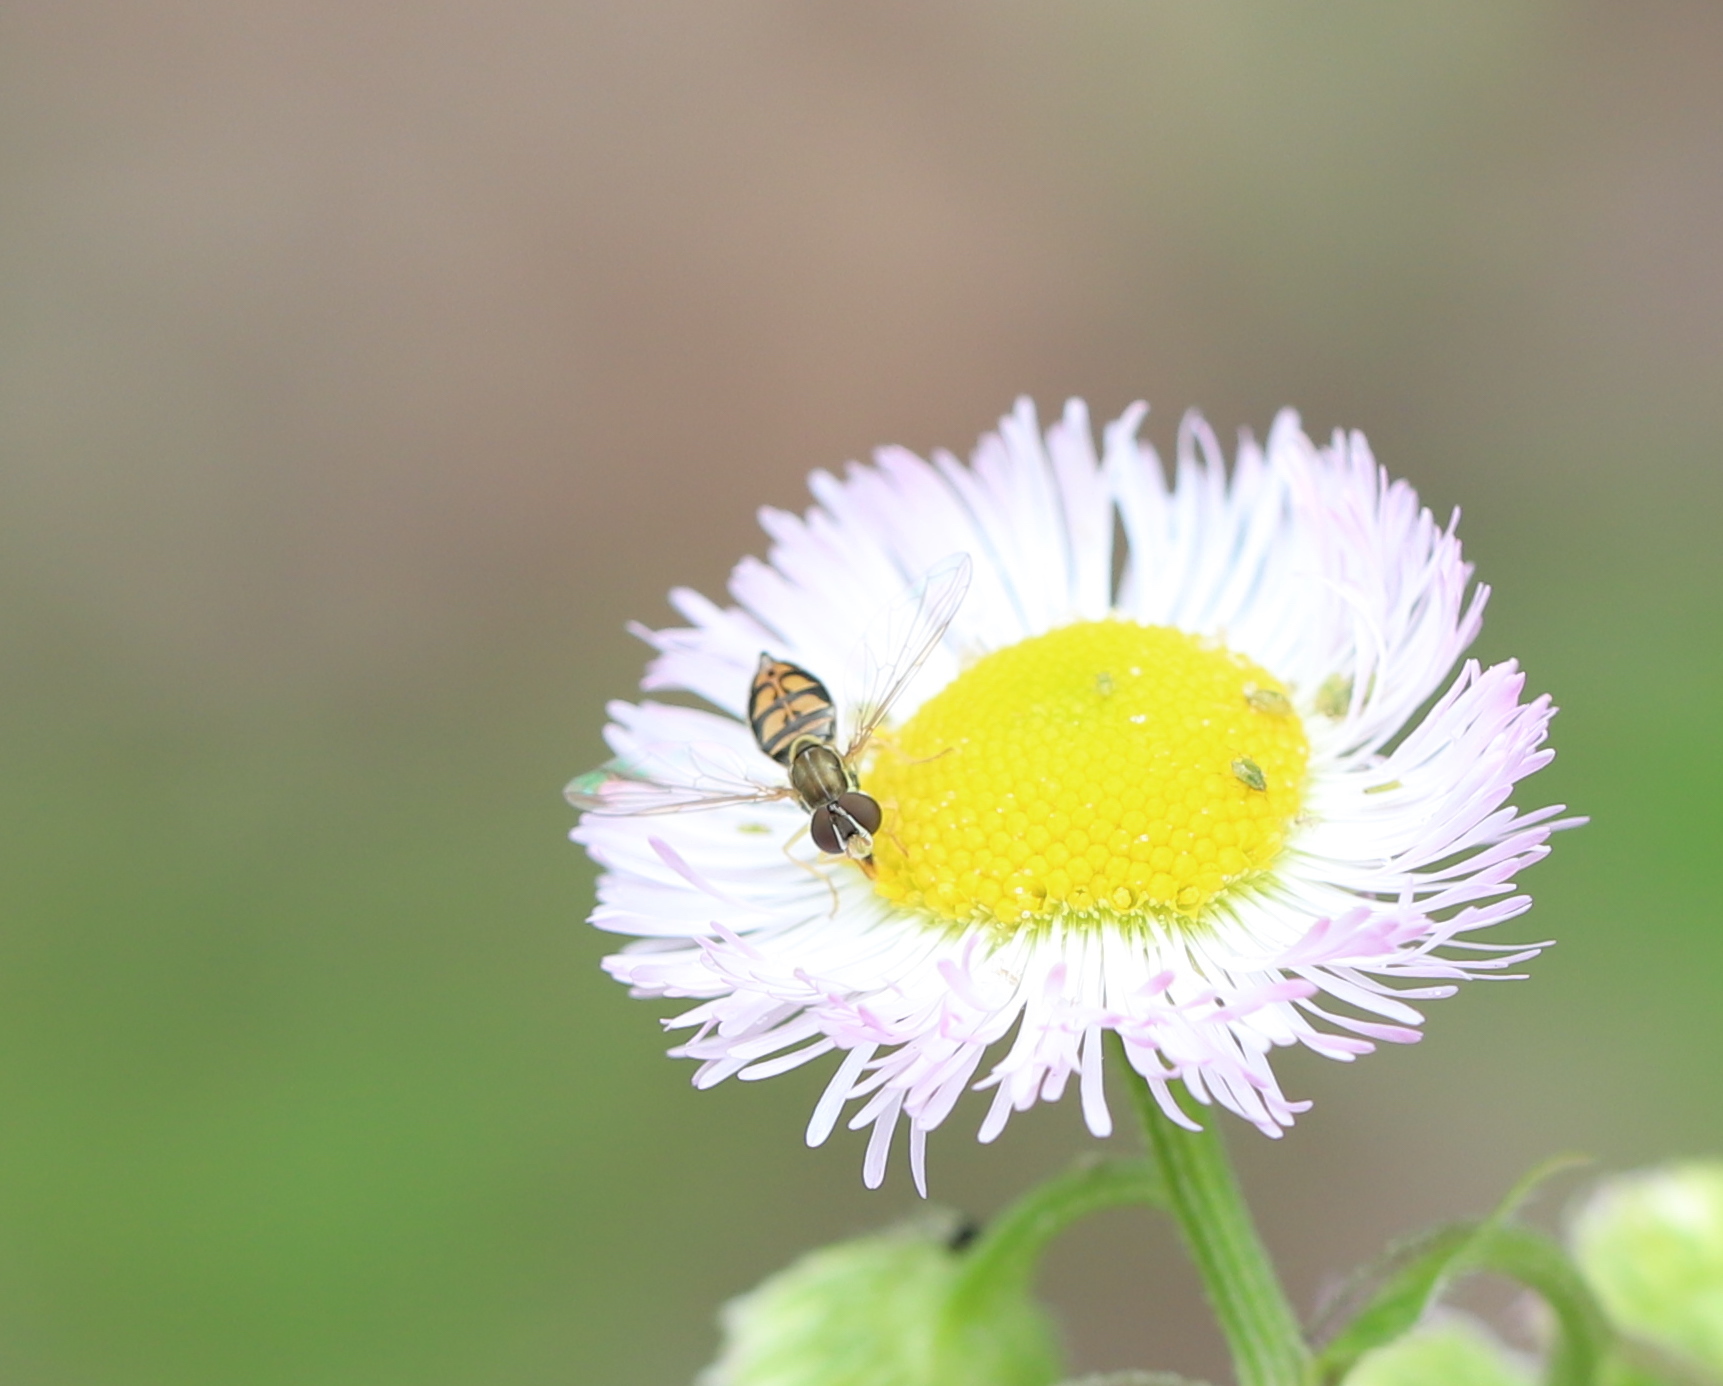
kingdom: Animalia
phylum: Arthropoda
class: Insecta
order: Diptera
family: Syrphidae
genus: Toxomerus
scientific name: Toxomerus marginatus
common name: Syrphid fly
